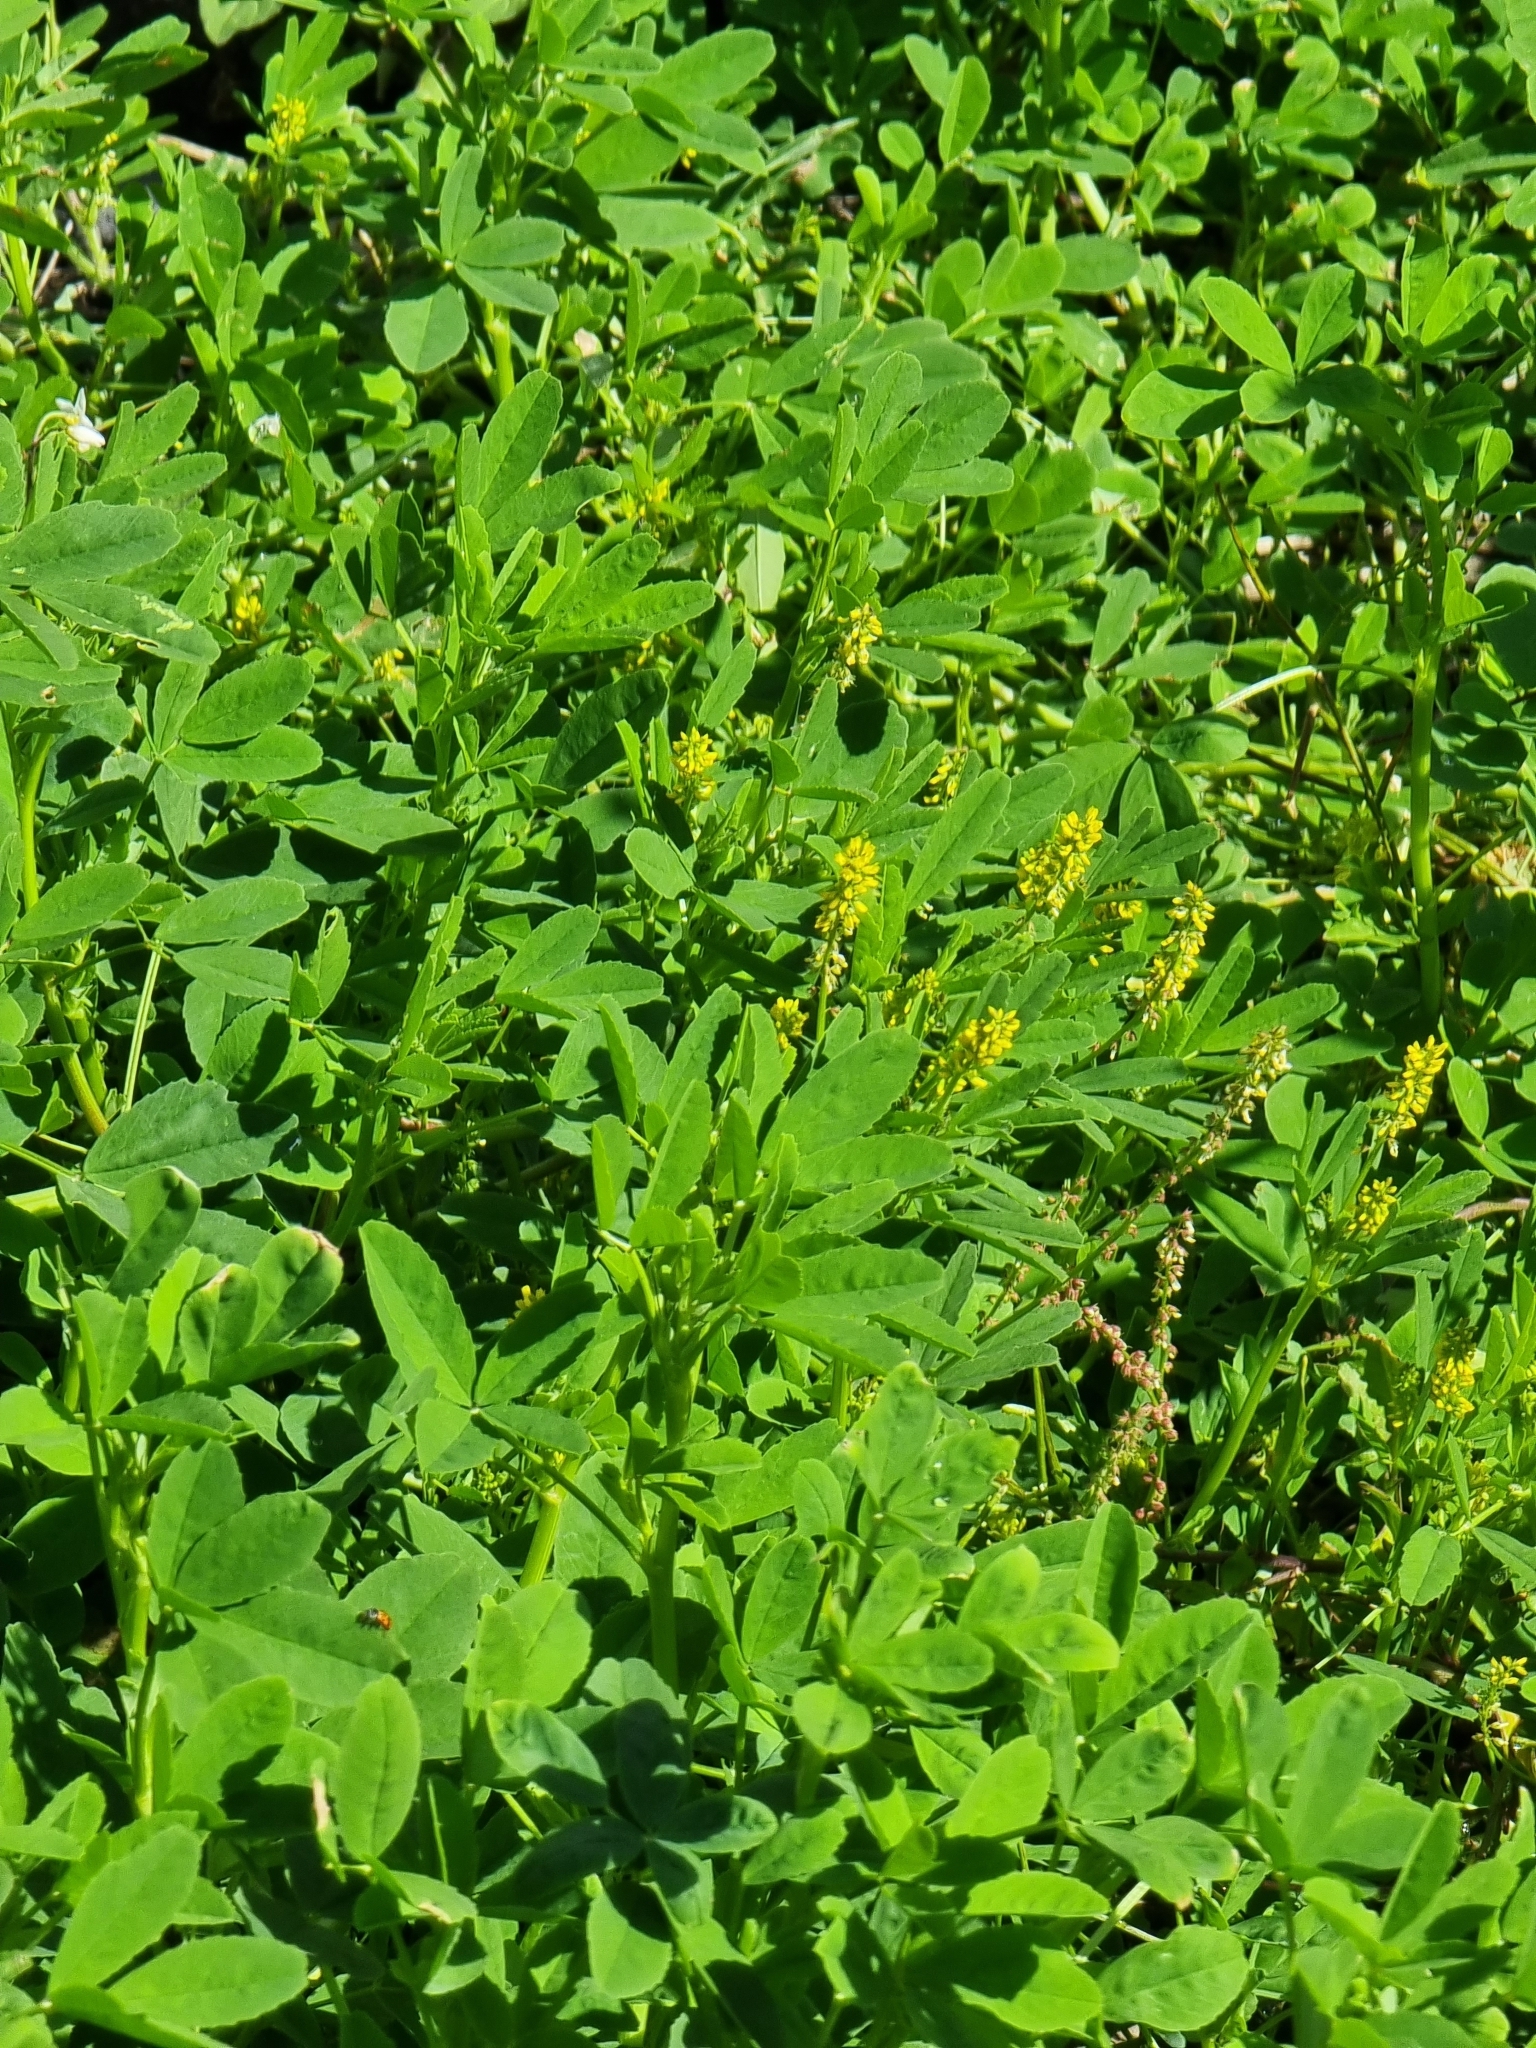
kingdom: Plantae
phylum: Tracheophyta
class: Magnoliopsida
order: Fabales
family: Fabaceae
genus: Melilotus
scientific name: Melilotus indicus
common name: Small melilot
